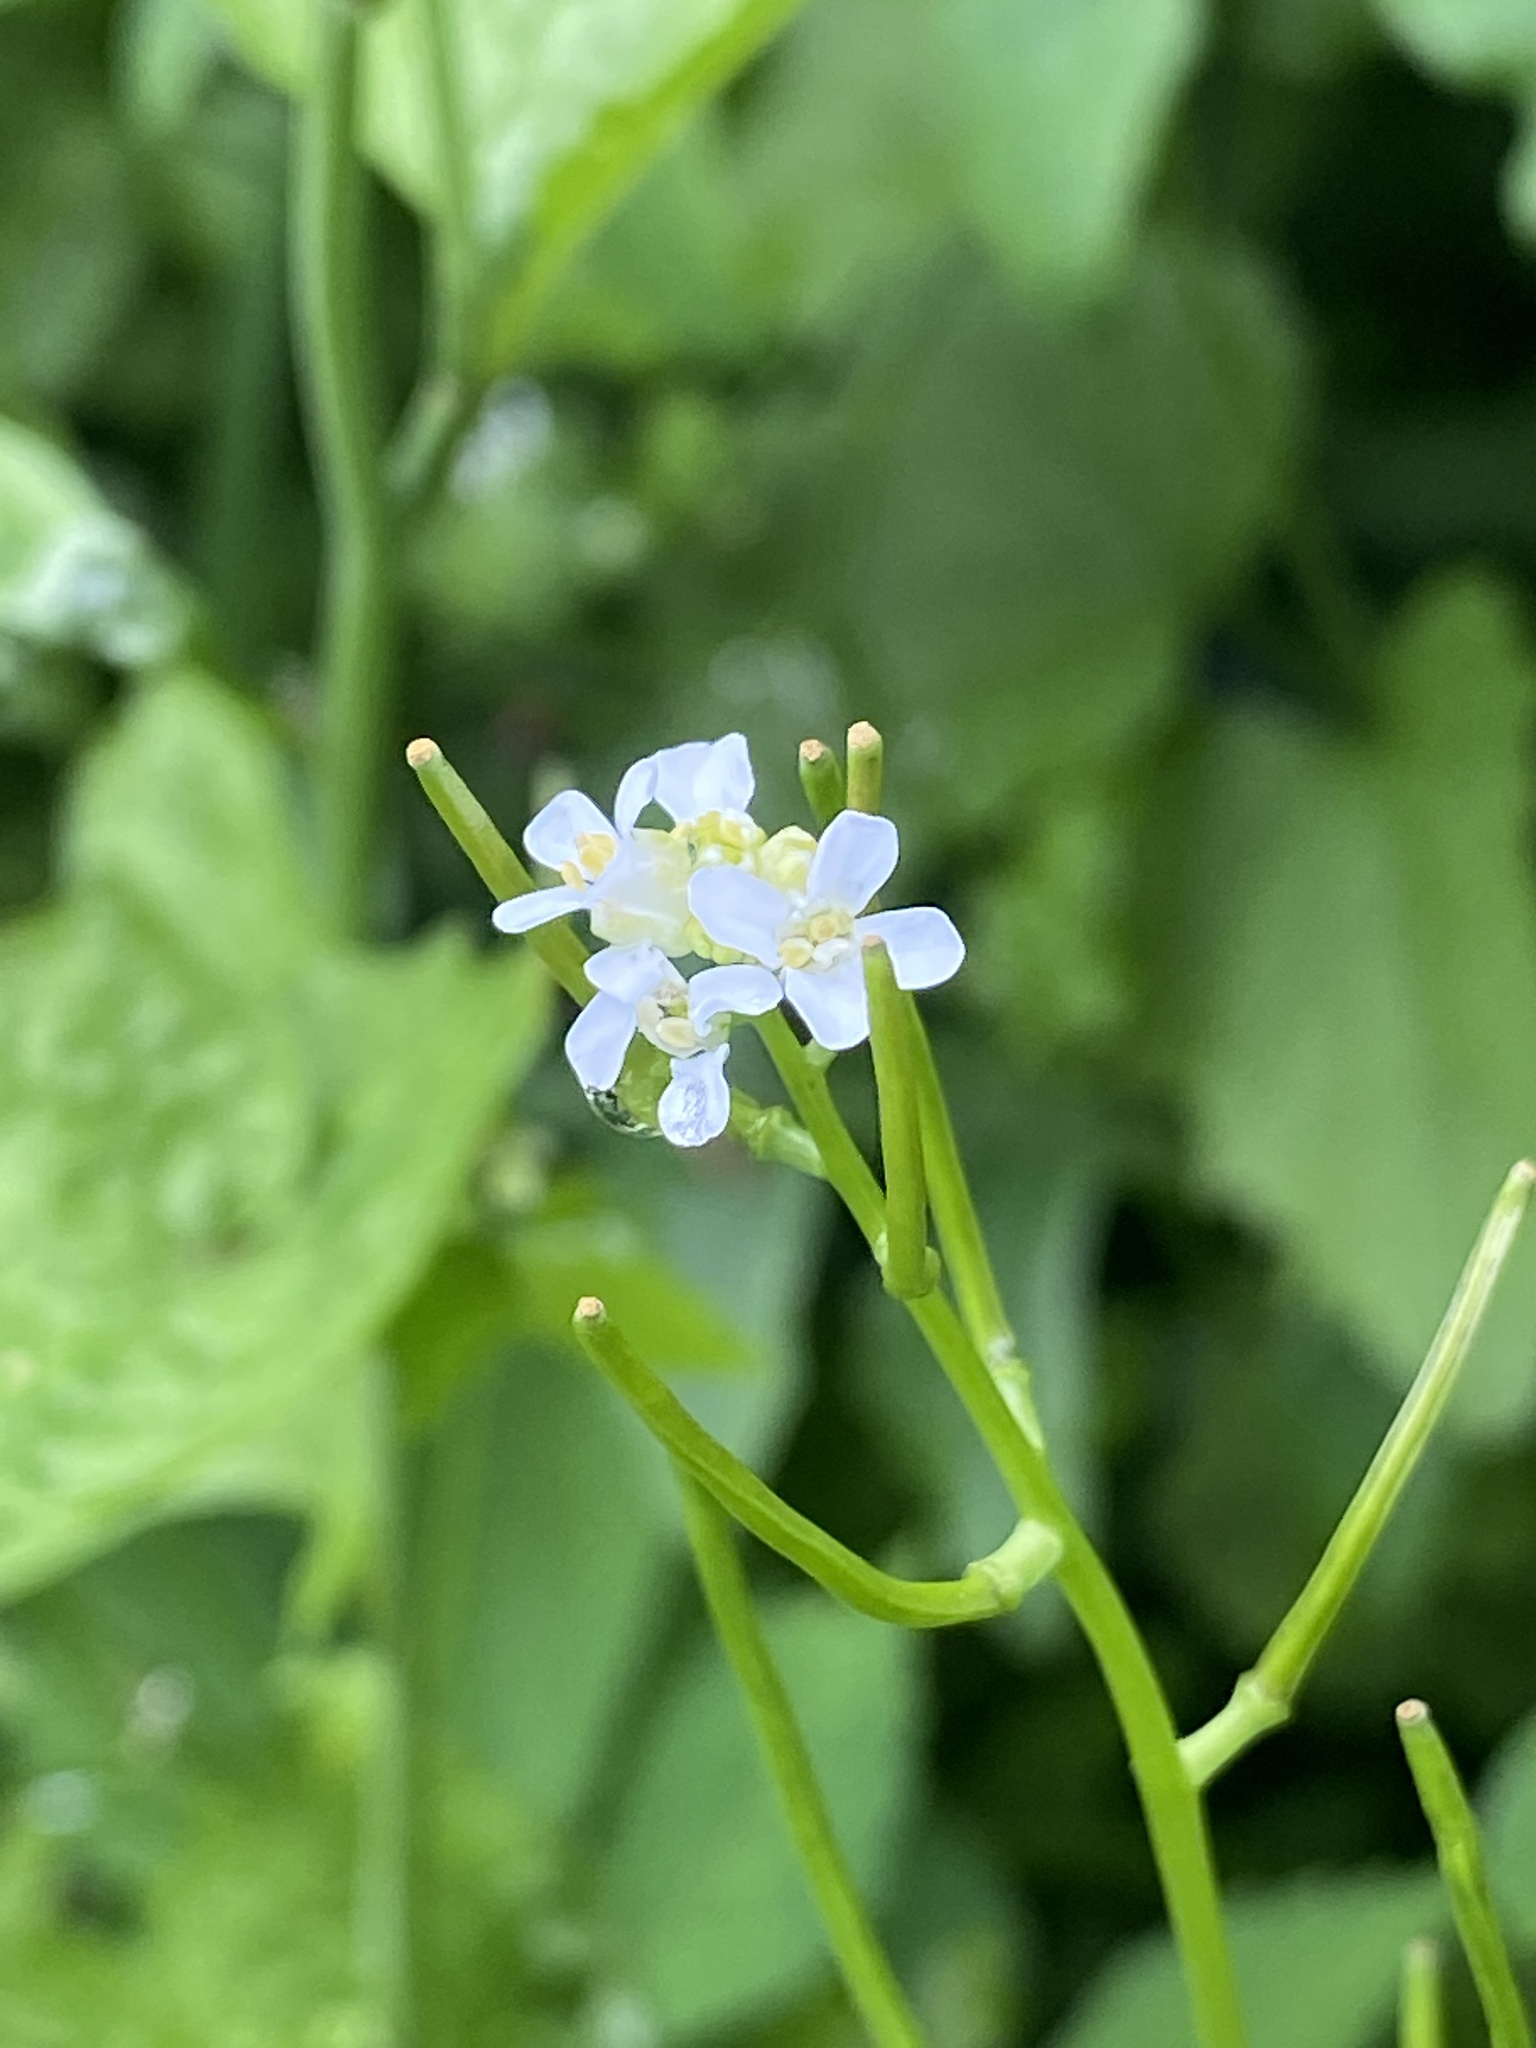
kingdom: Plantae
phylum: Tracheophyta
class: Magnoliopsida
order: Brassicales
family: Brassicaceae
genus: Alliaria
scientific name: Alliaria petiolata
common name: Garlic mustard
